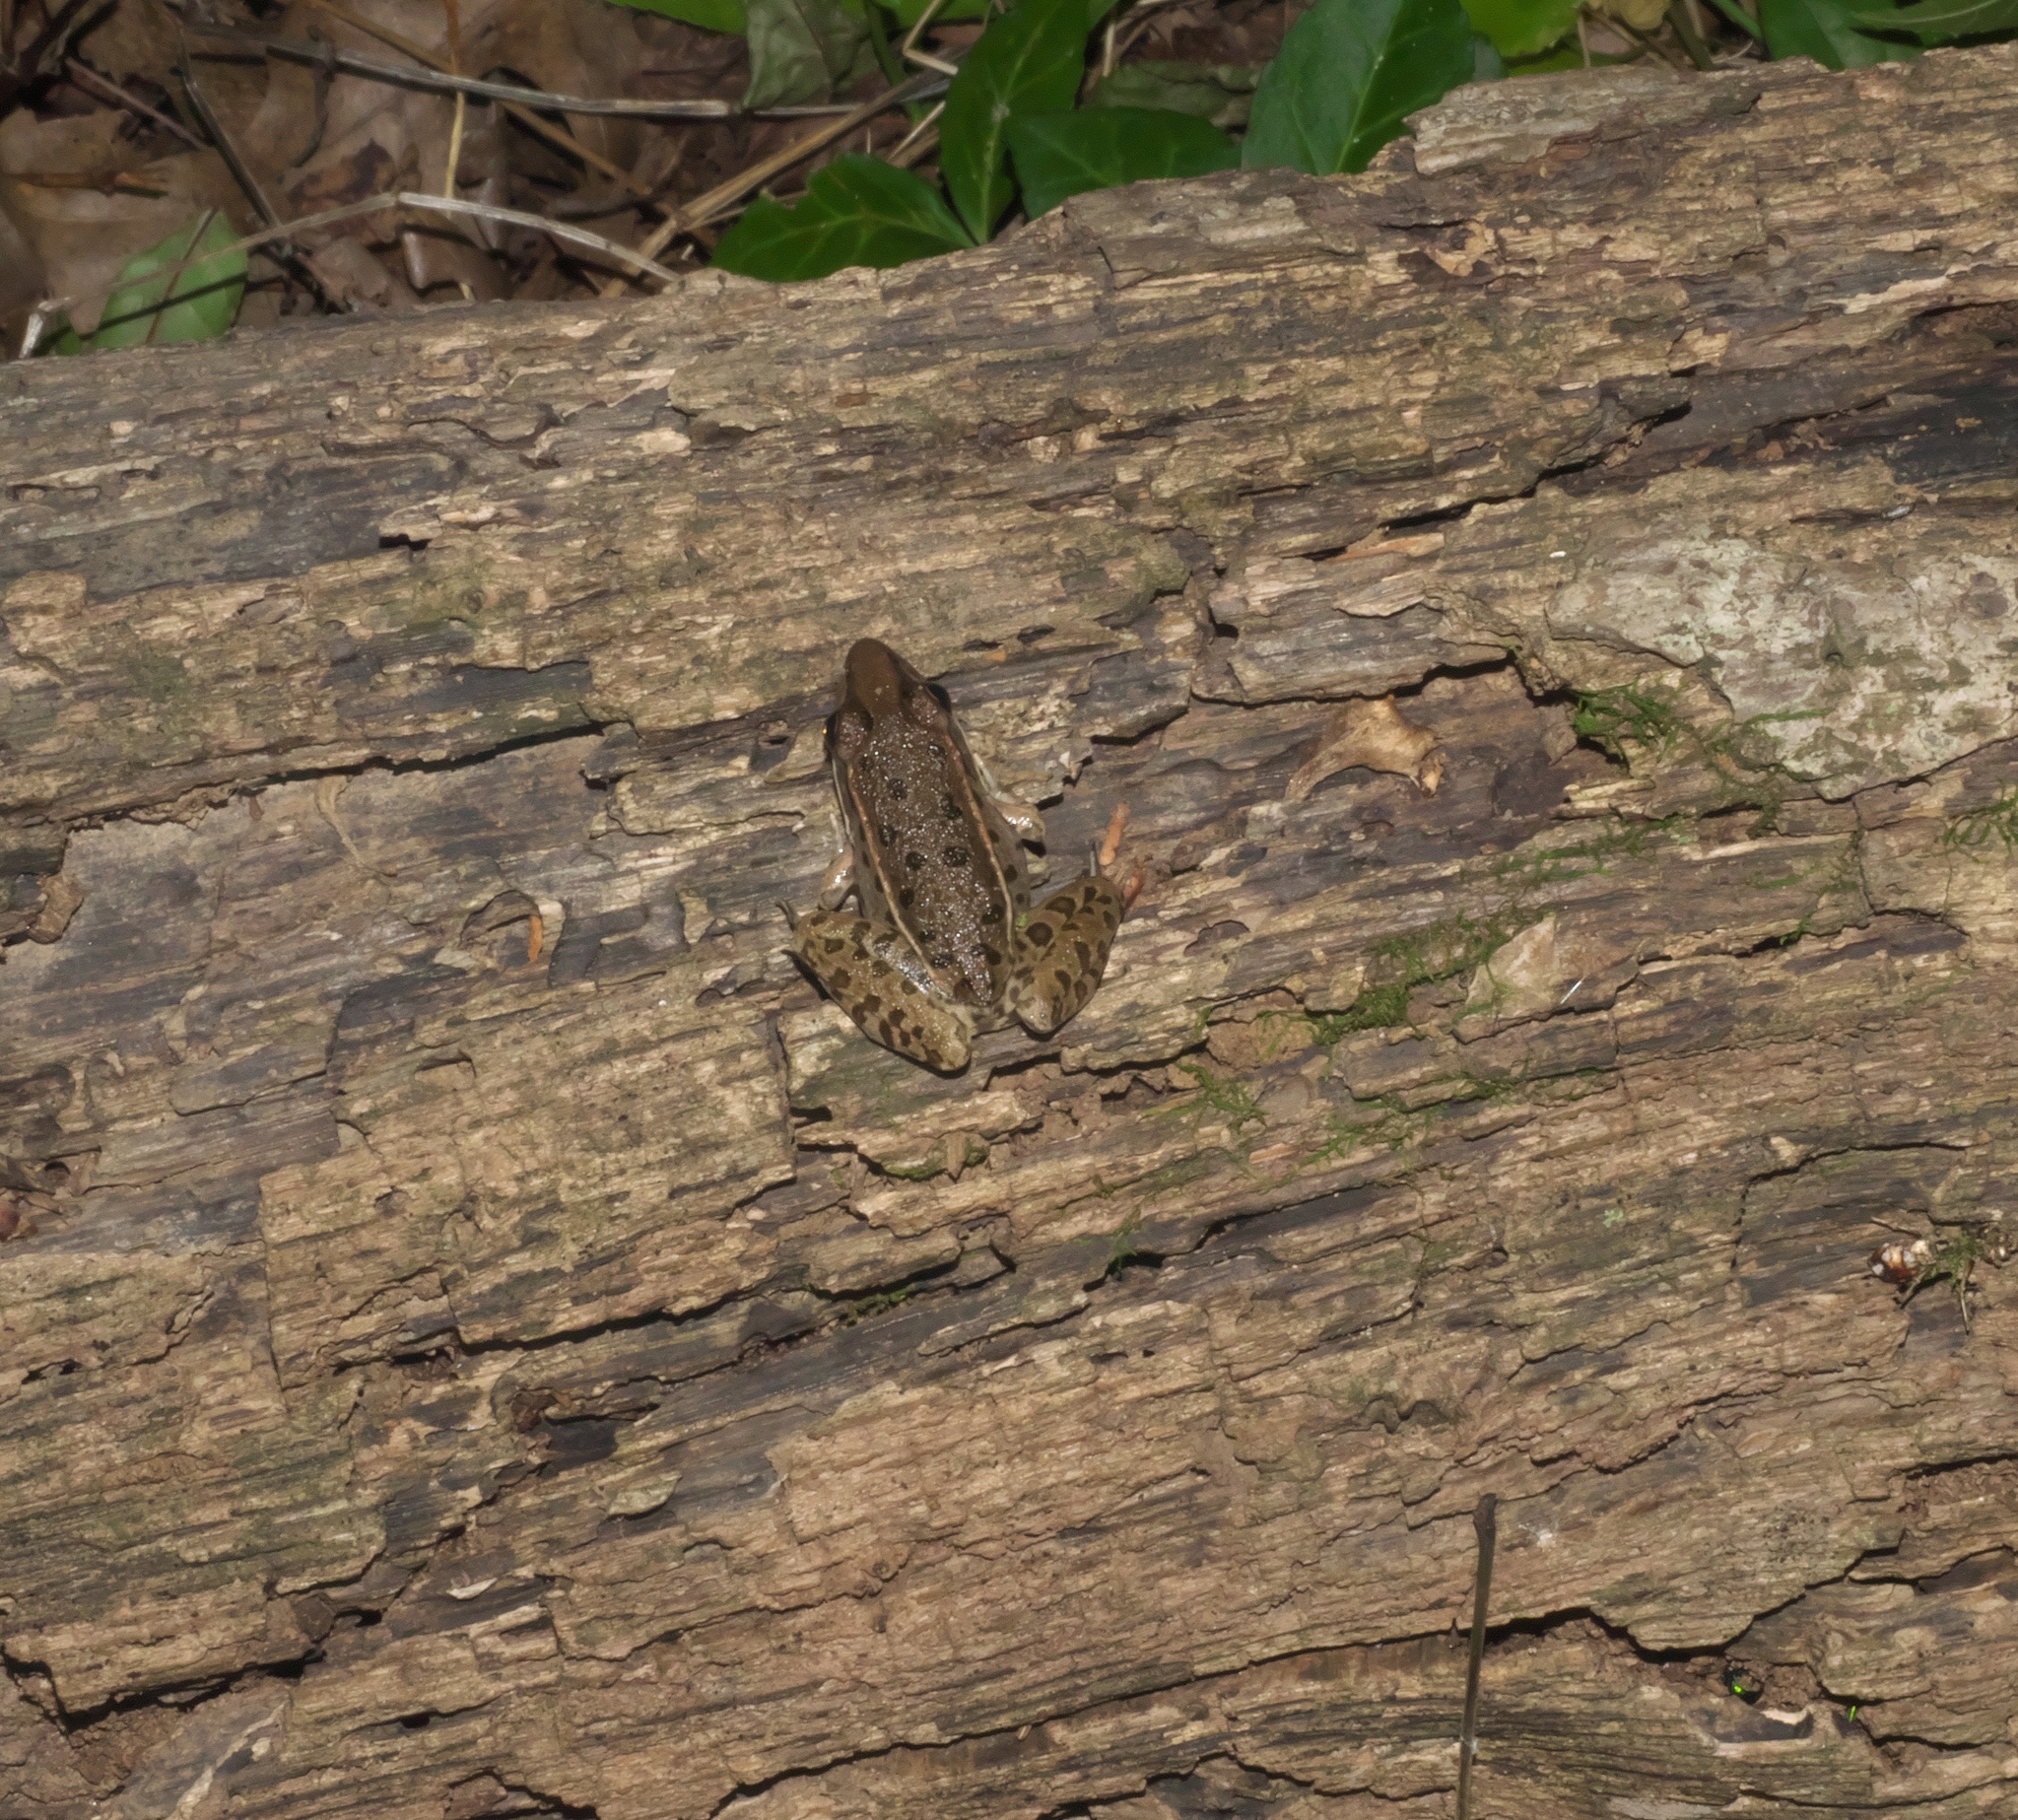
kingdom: Animalia
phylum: Chordata
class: Amphibia
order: Anura
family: Ranidae
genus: Lithobates
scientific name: Lithobates sphenocephalus
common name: Southern leopard frog
